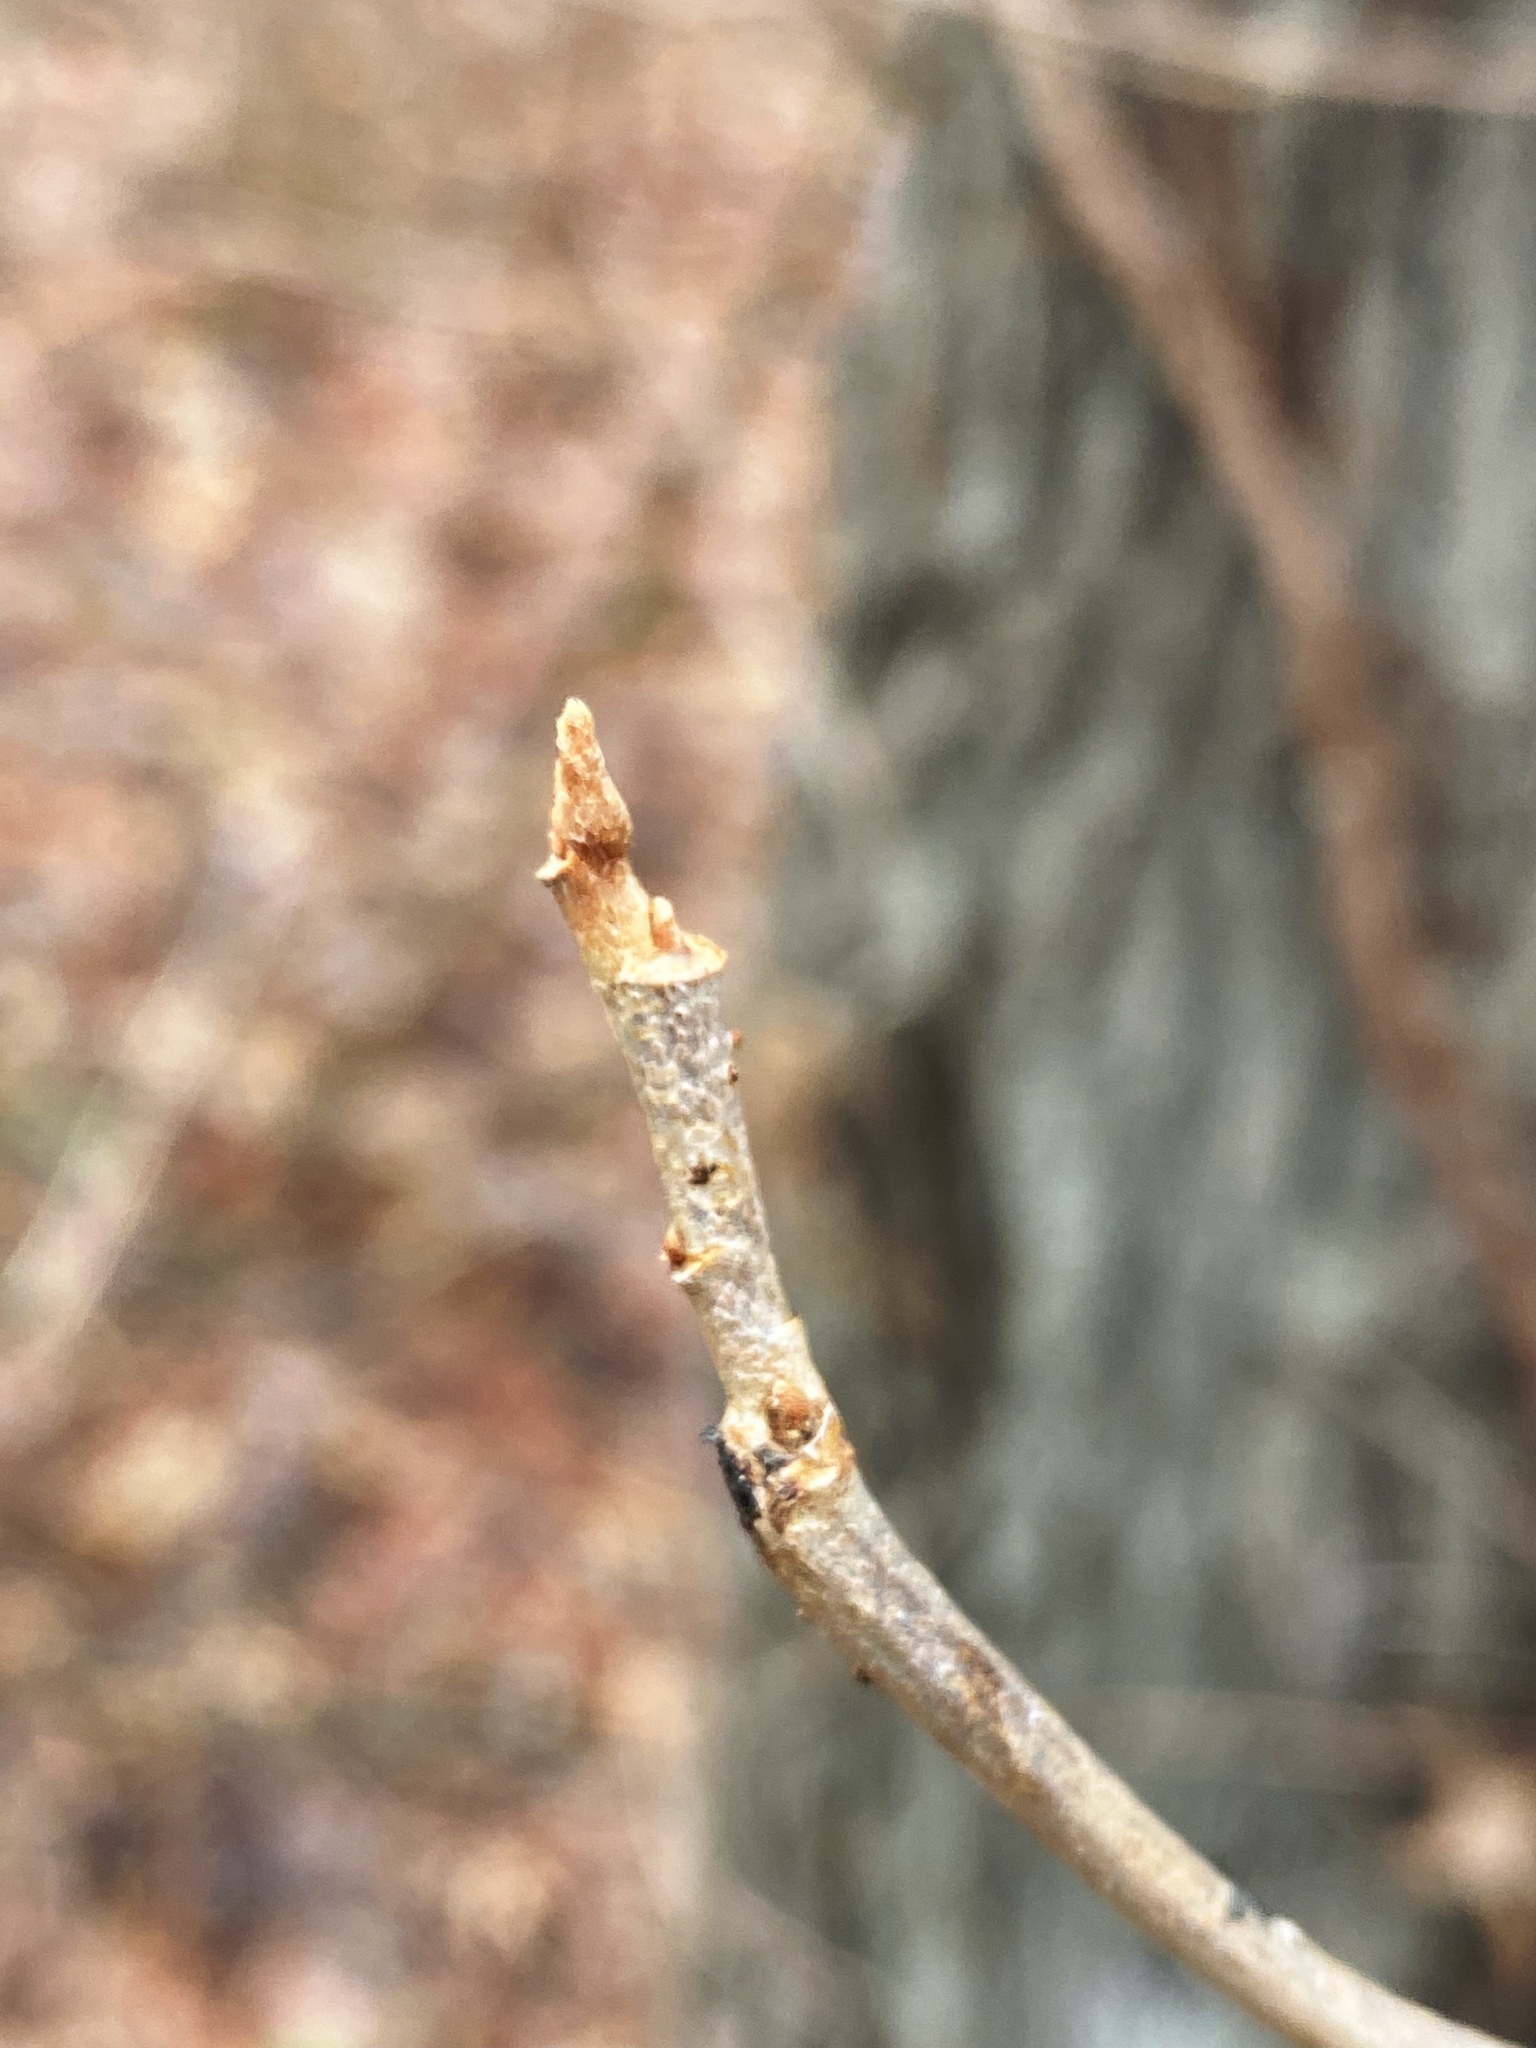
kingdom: Plantae
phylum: Tracheophyta
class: Magnoliopsida
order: Sapindales
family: Anacardiaceae
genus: Toxicodendron
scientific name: Toxicodendron radicans
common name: Poison ivy
